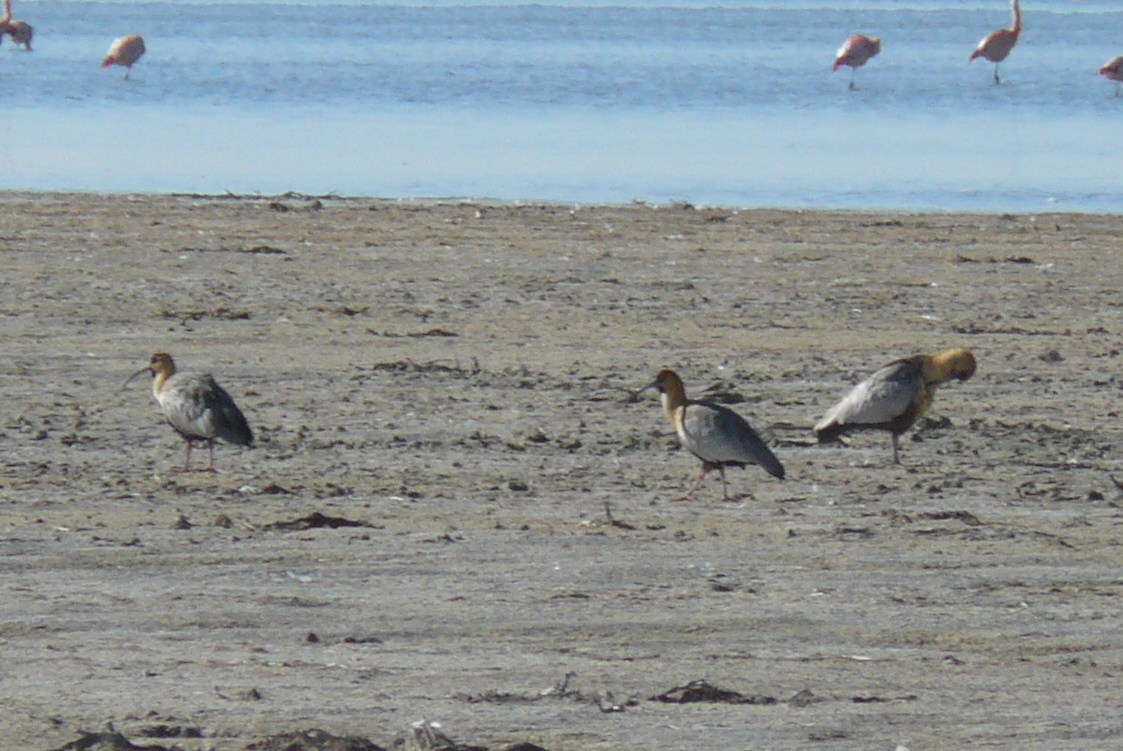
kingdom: Animalia
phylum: Chordata
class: Aves
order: Pelecaniformes
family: Threskiornithidae
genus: Theristicus
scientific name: Theristicus melanopis
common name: Black-faced ibis
